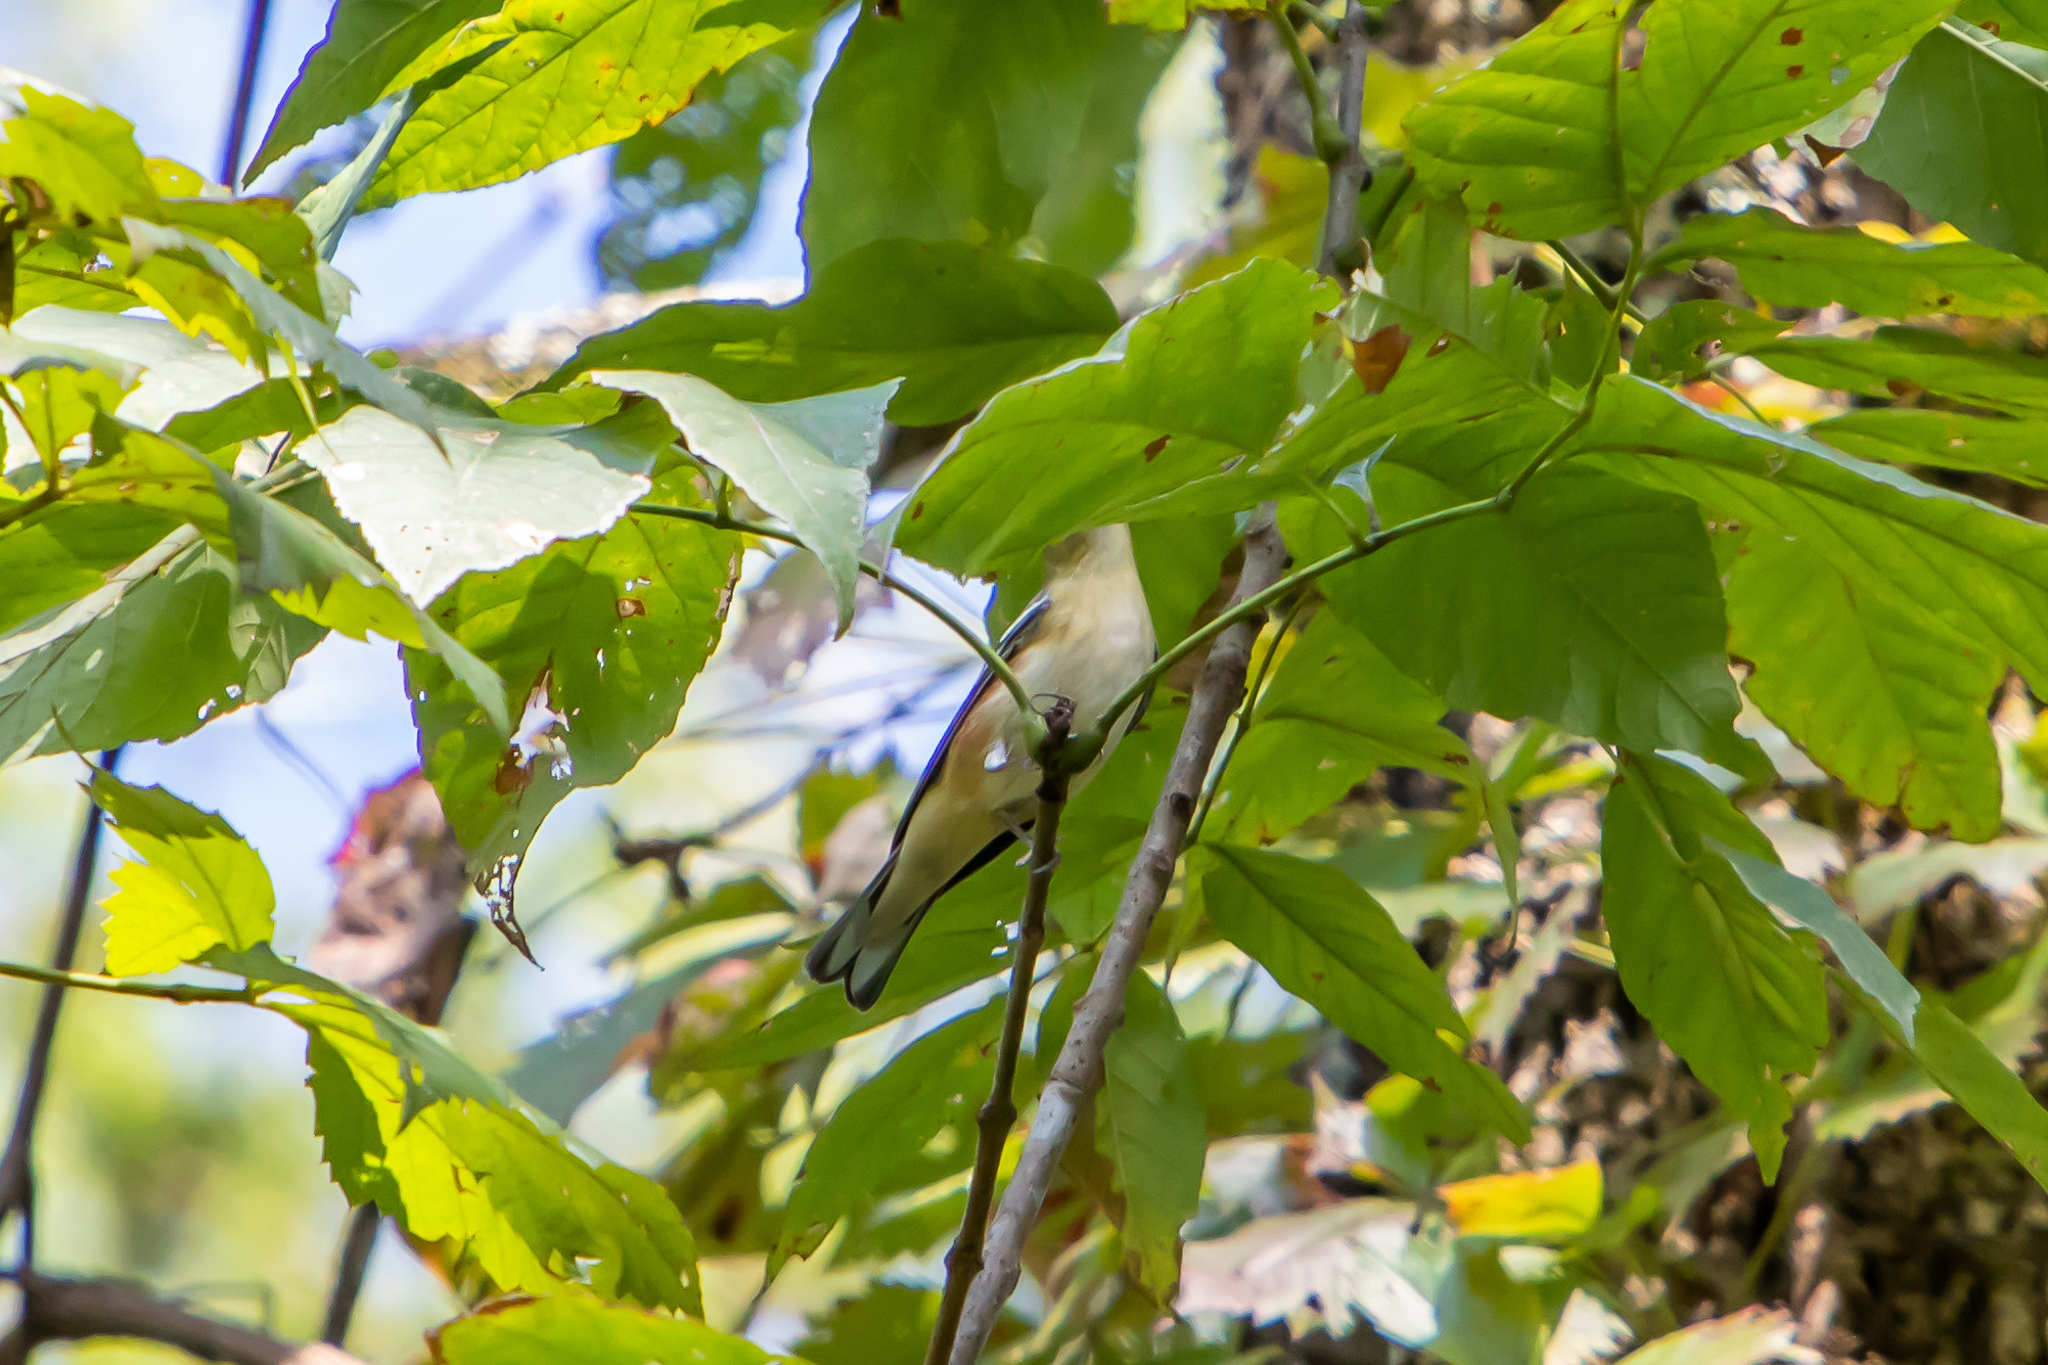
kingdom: Animalia
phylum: Chordata
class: Aves
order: Passeriformes
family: Parulidae
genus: Setophaga
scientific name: Setophaga castanea
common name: Bay-breasted warbler
